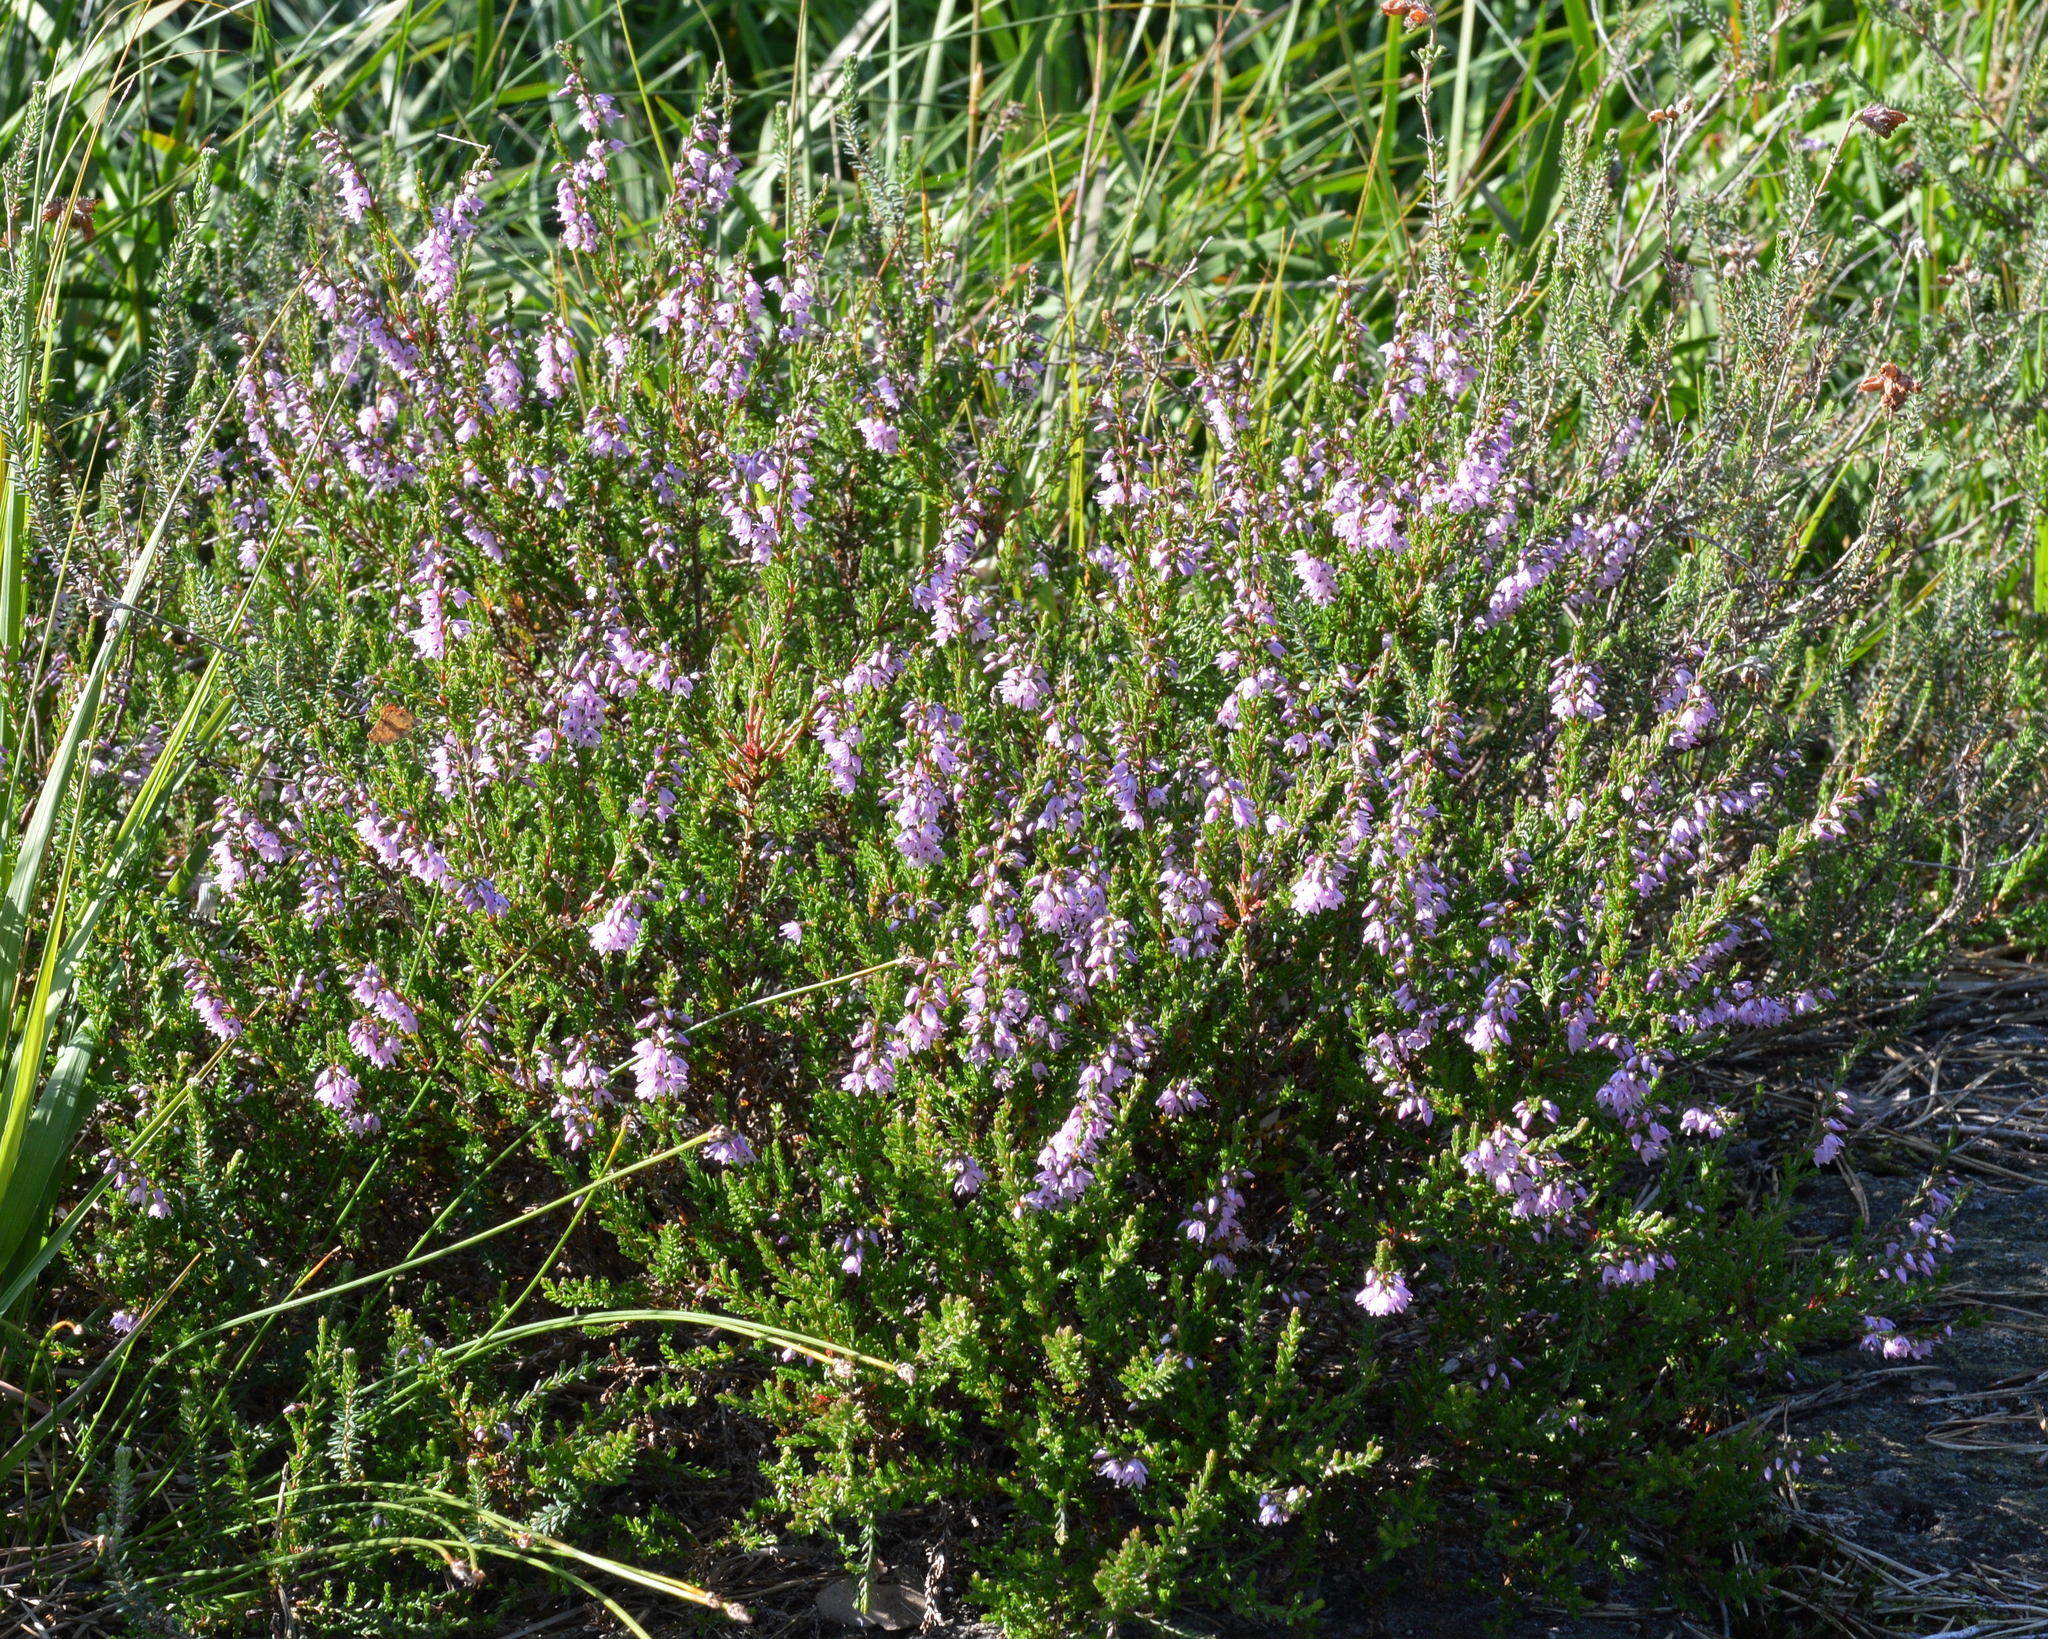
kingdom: Plantae
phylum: Tracheophyta
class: Magnoliopsida
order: Ericales
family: Ericaceae
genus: Calluna
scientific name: Calluna vulgaris
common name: Heather
